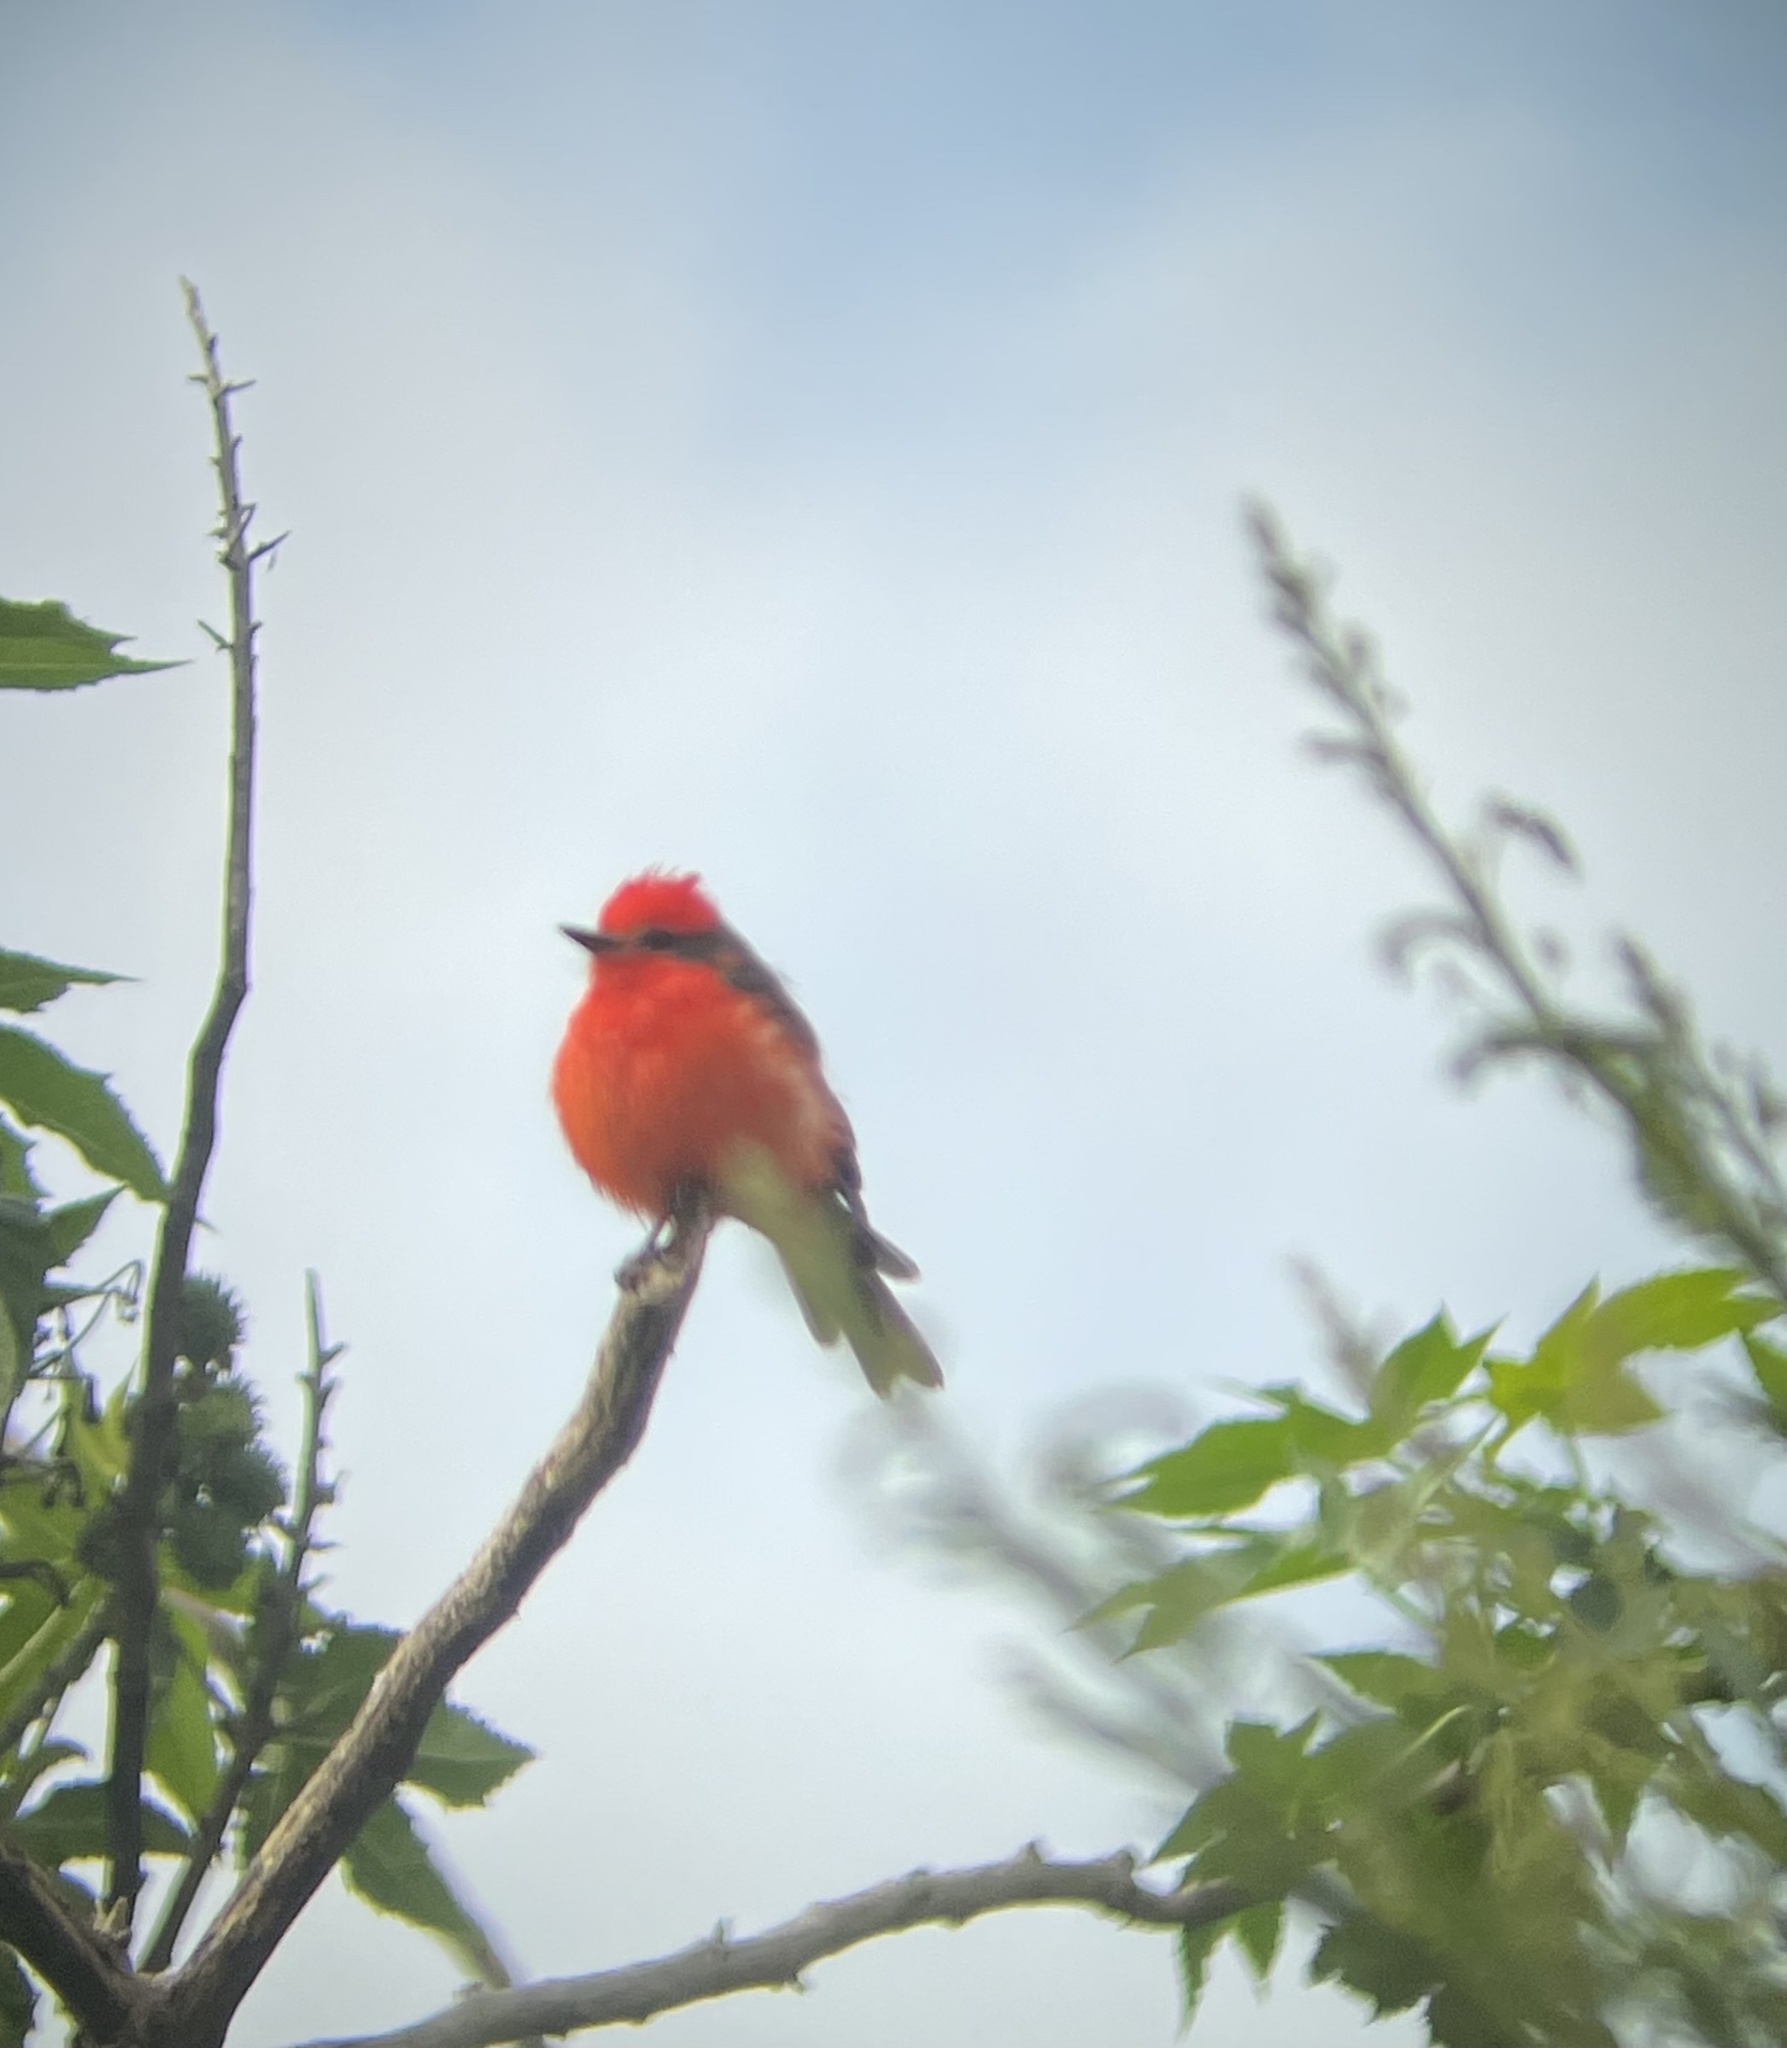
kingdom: Animalia
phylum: Chordata
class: Aves
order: Passeriformes
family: Tyrannidae
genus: Pyrocephalus
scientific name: Pyrocephalus rubinus
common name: Vermilion flycatcher
